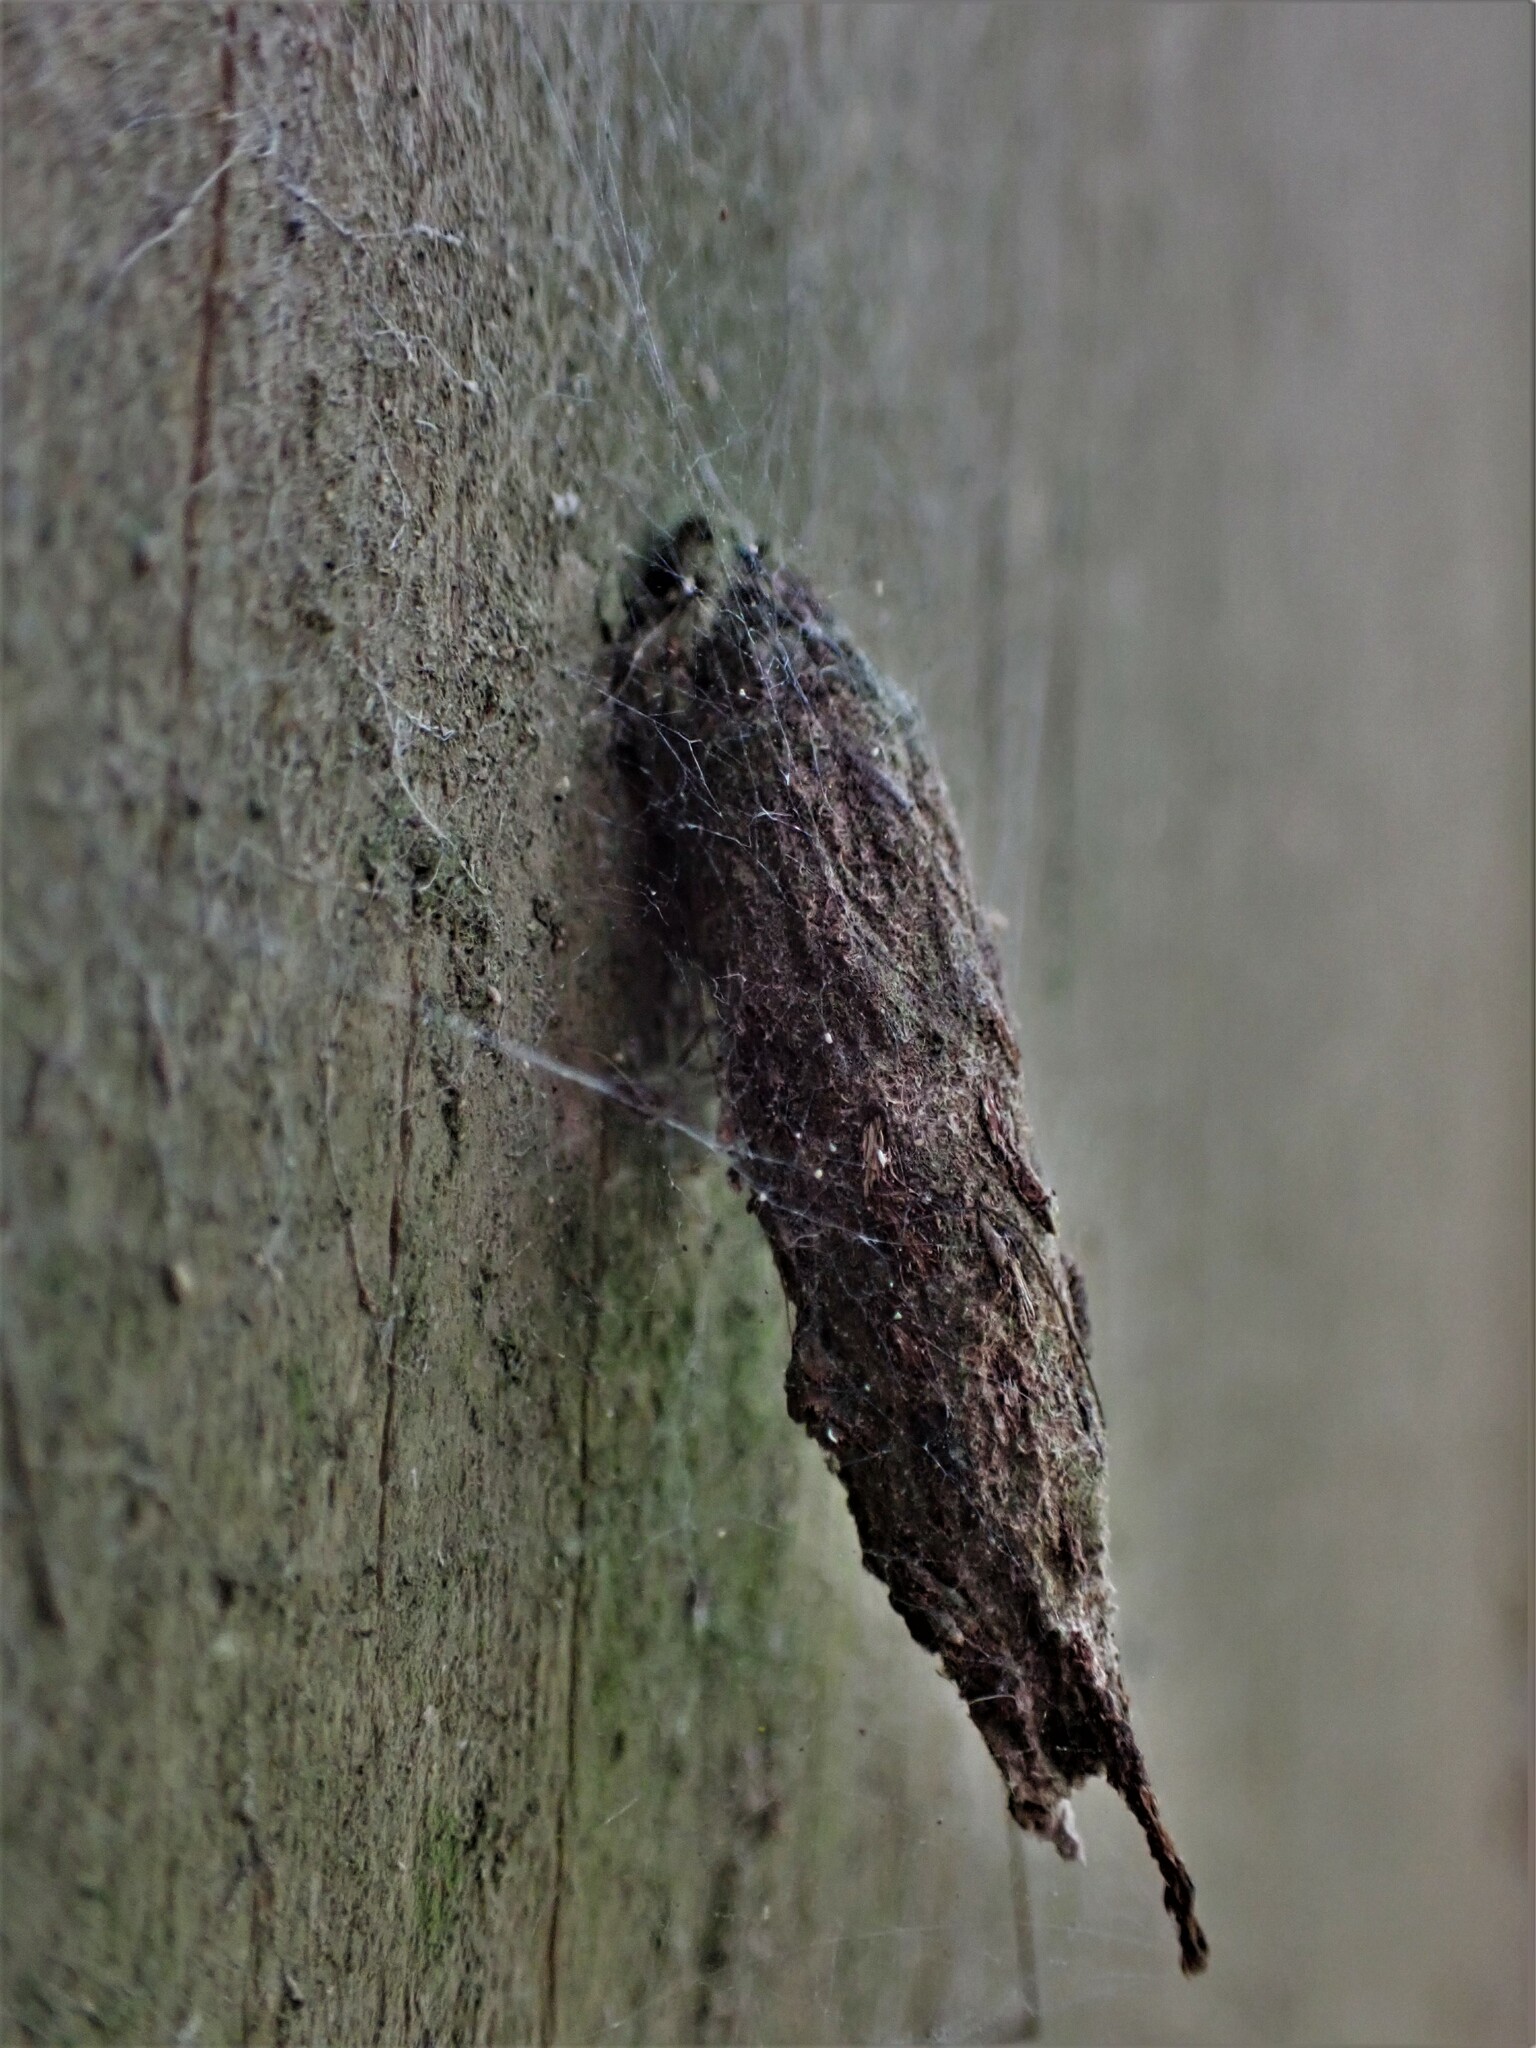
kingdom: Animalia
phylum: Arthropoda
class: Insecta
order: Lepidoptera
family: Psychidae
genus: Liothula
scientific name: Liothula omnivora
